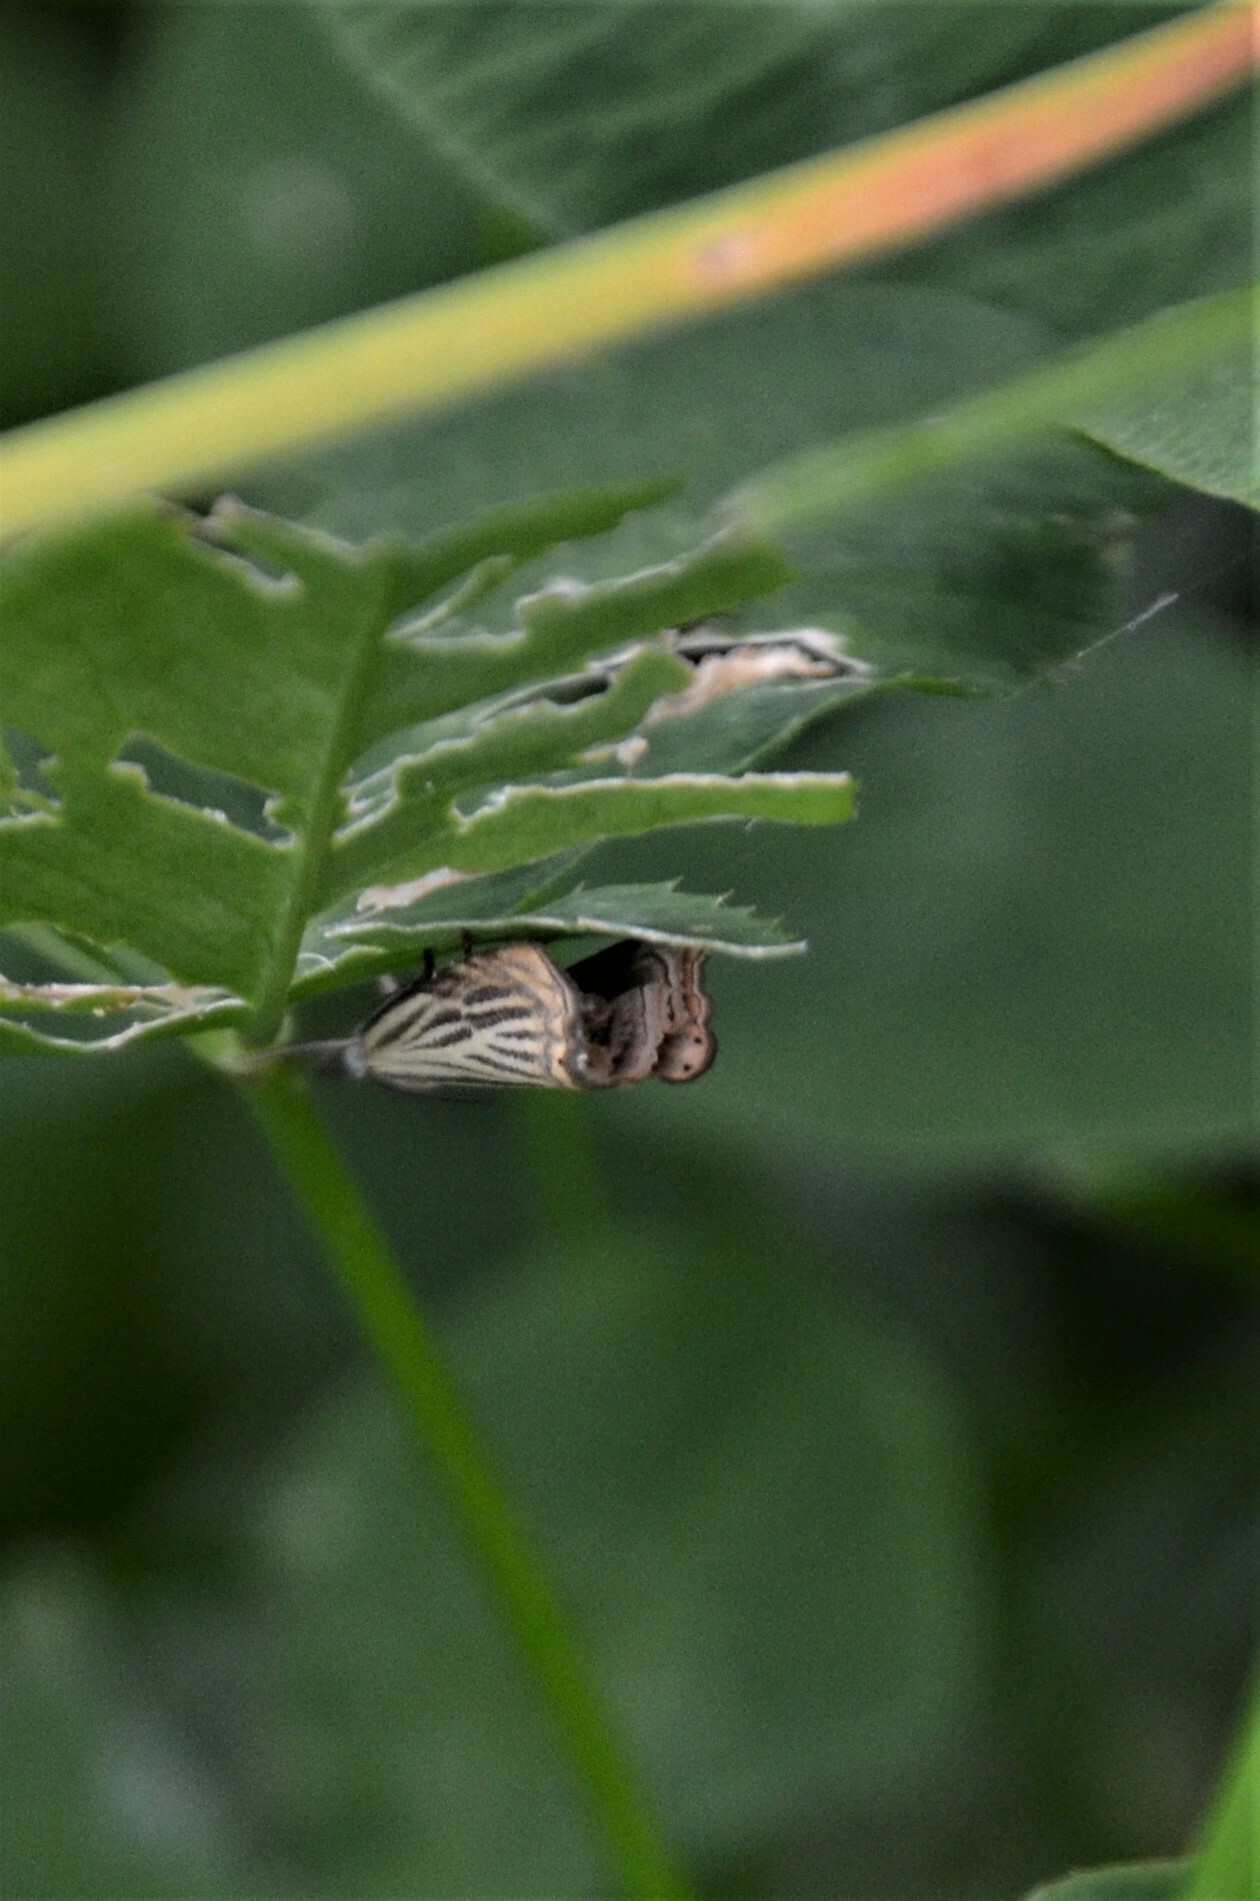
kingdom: Animalia
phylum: Arthropoda
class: Insecta
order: Lepidoptera
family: Crambidae
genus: Chrysoteuchia
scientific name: Chrysoteuchia culmella
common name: Garden grass-veneer
